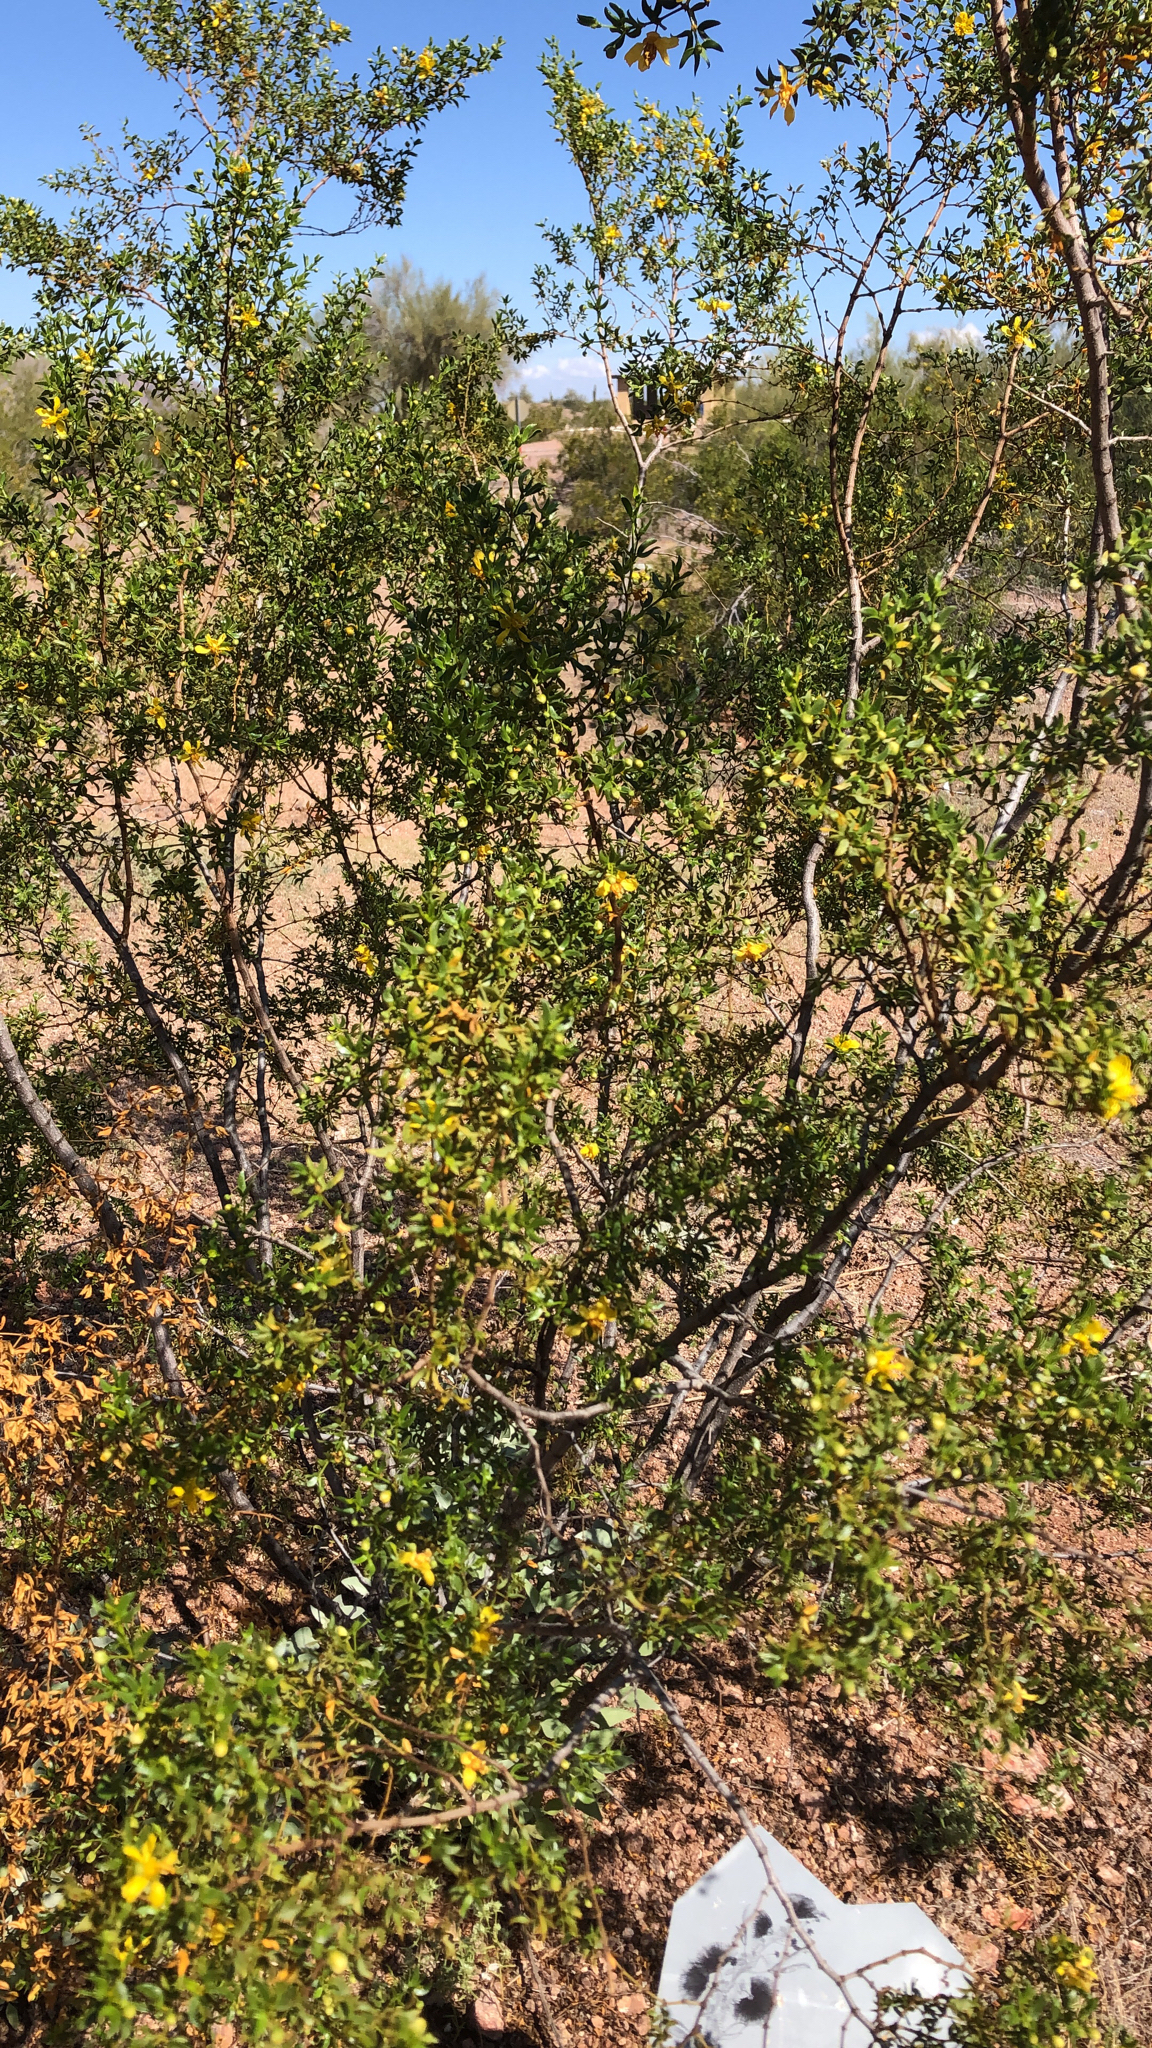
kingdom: Plantae
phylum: Tracheophyta
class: Magnoliopsida
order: Zygophyllales
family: Zygophyllaceae
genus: Larrea
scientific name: Larrea tridentata
